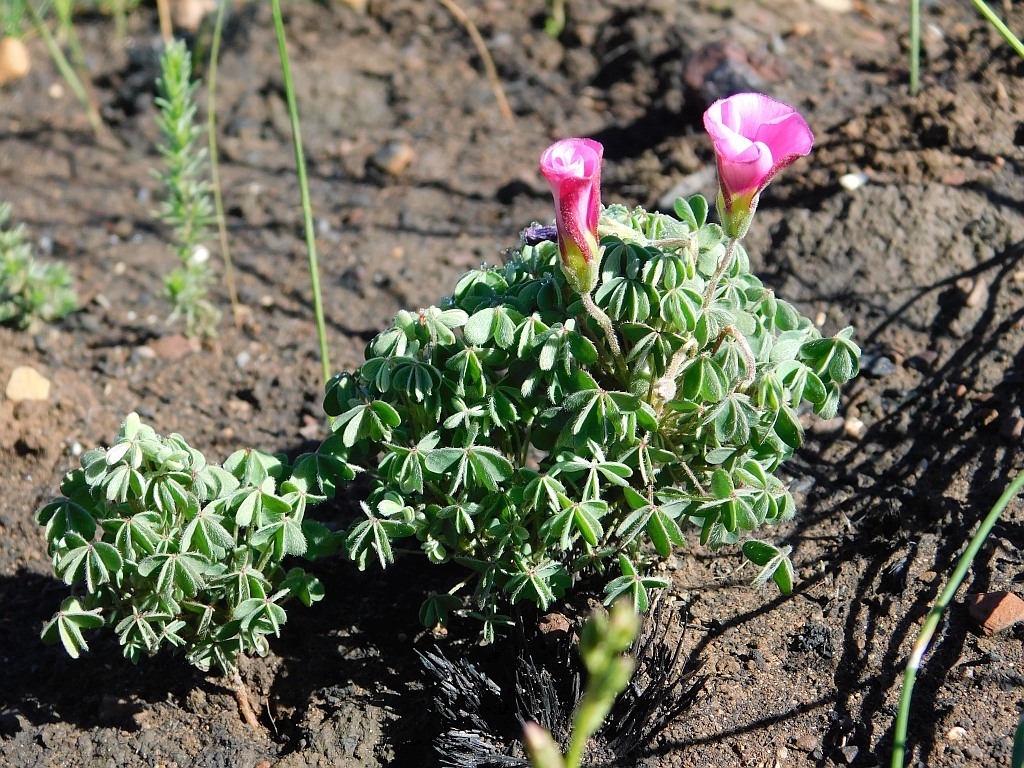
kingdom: Plantae
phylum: Tracheophyta
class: Magnoliopsida
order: Oxalidales
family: Oxalidaceae
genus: Oxalis
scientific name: Oxalis heterophylla
